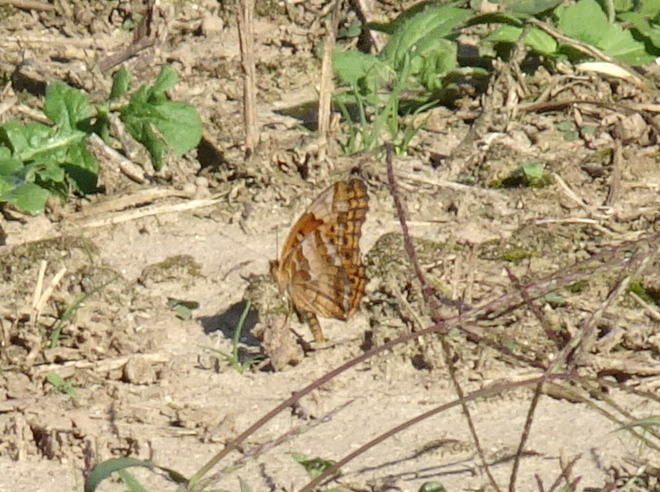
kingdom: Animalia
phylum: Arthropoda
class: Insecta
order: Lepidoptera
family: Nymphalidae
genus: Euptoieta
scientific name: Euptoieta claudia
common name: Variegated fritillary
